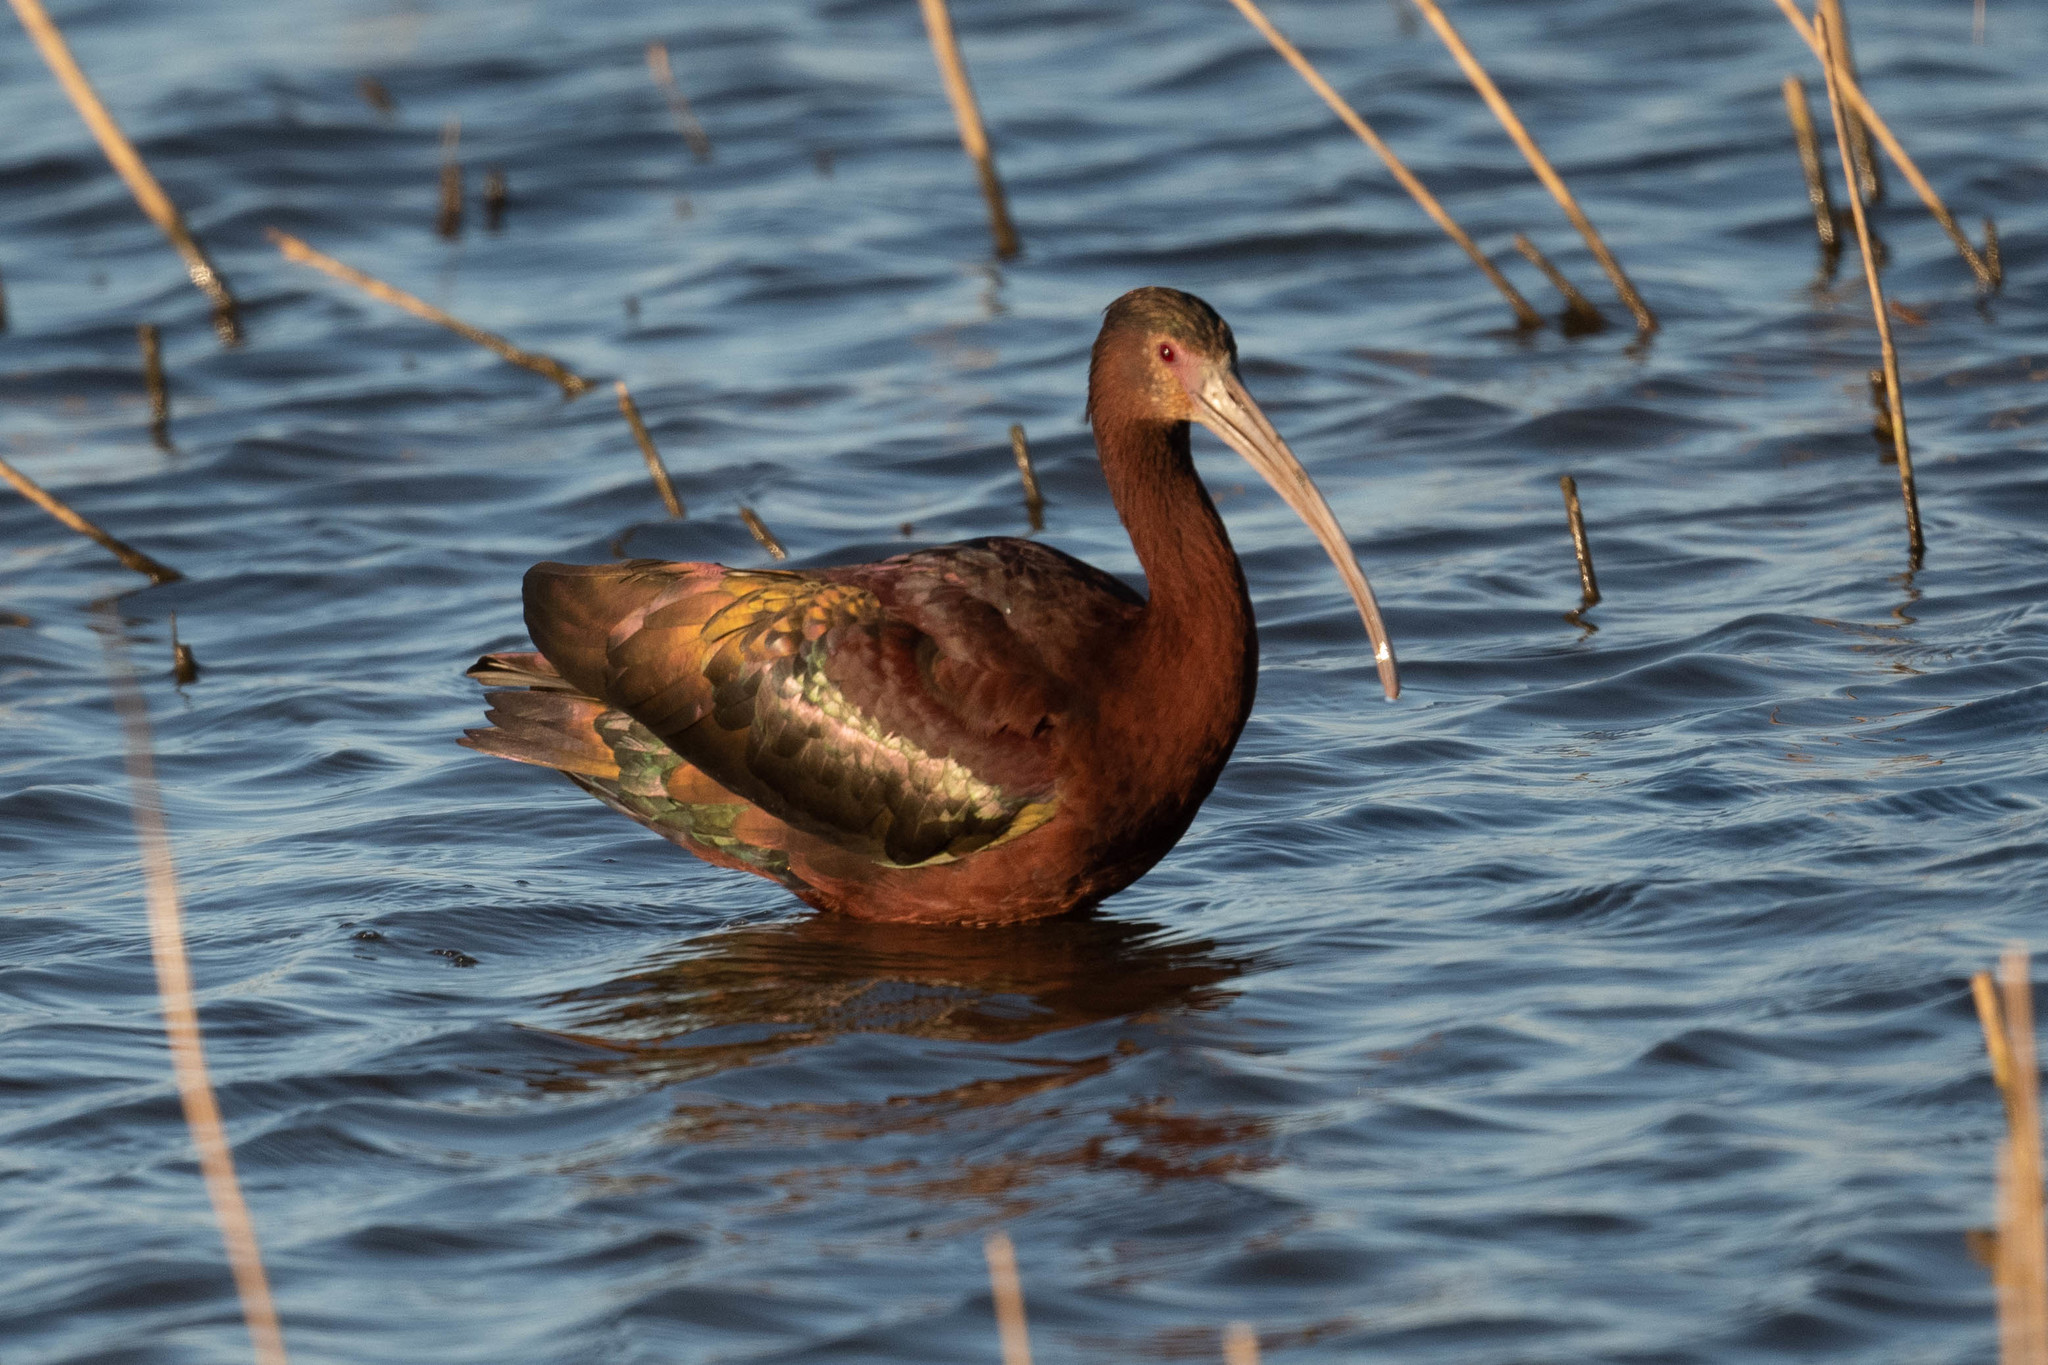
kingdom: Animalia
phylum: Chordata
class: Aves
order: Pelecaniformes
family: Threskiornithidae
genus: Plegadis
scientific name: Plegadis chihi
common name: White-faced ibis
